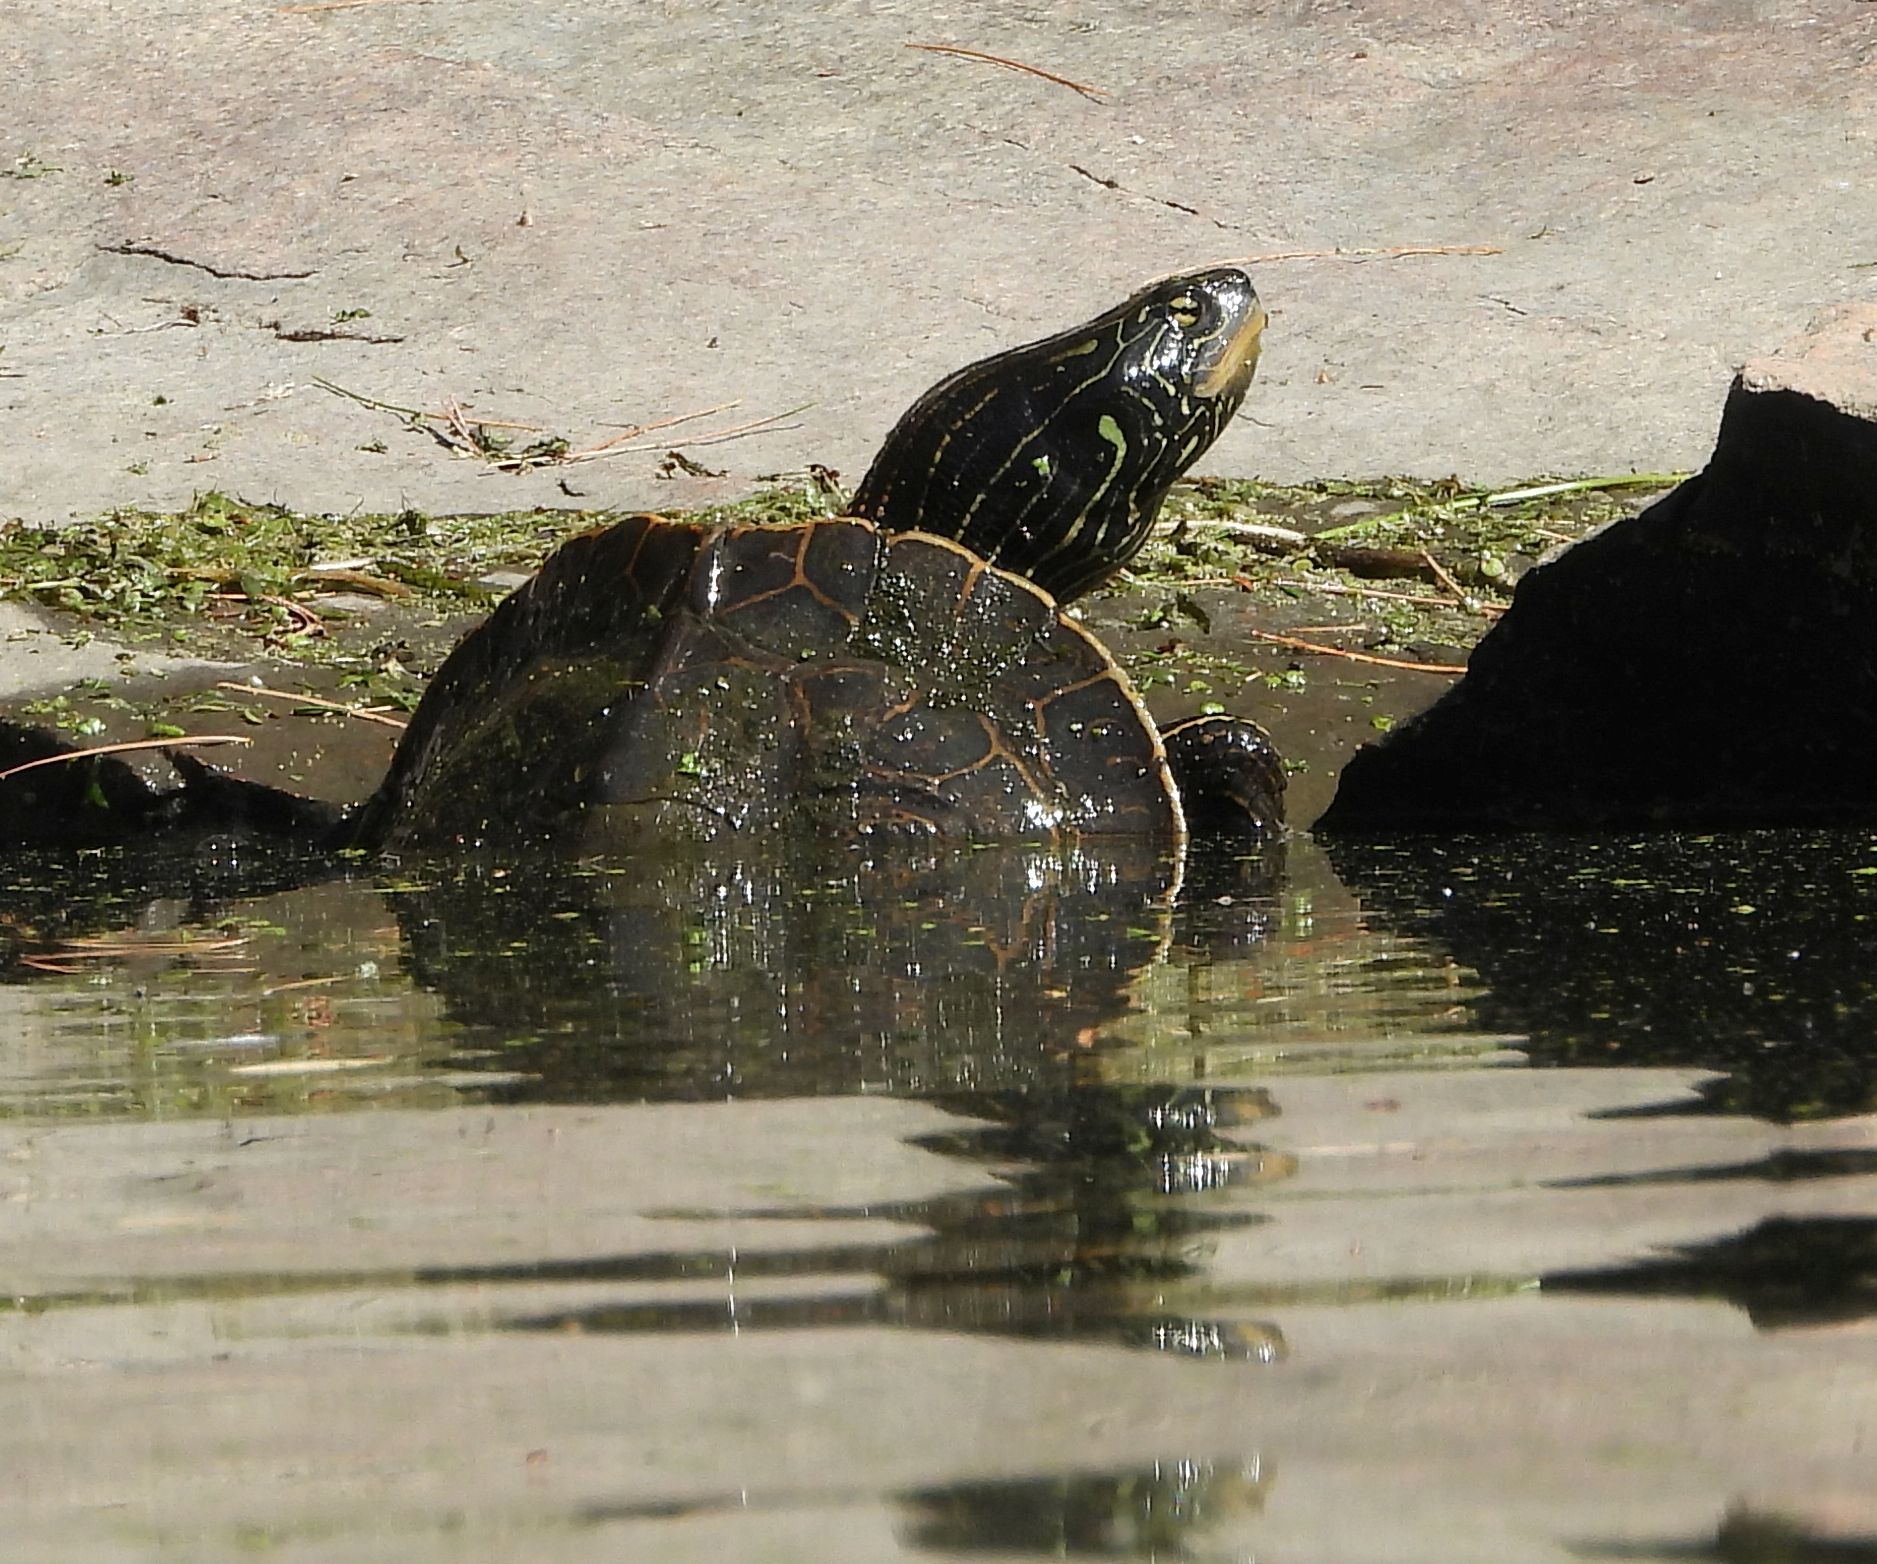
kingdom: Animalia
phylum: Chordata
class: Testudines
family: Emydidae
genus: Graptemys
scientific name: Graptemys geographica
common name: Common map turtle
